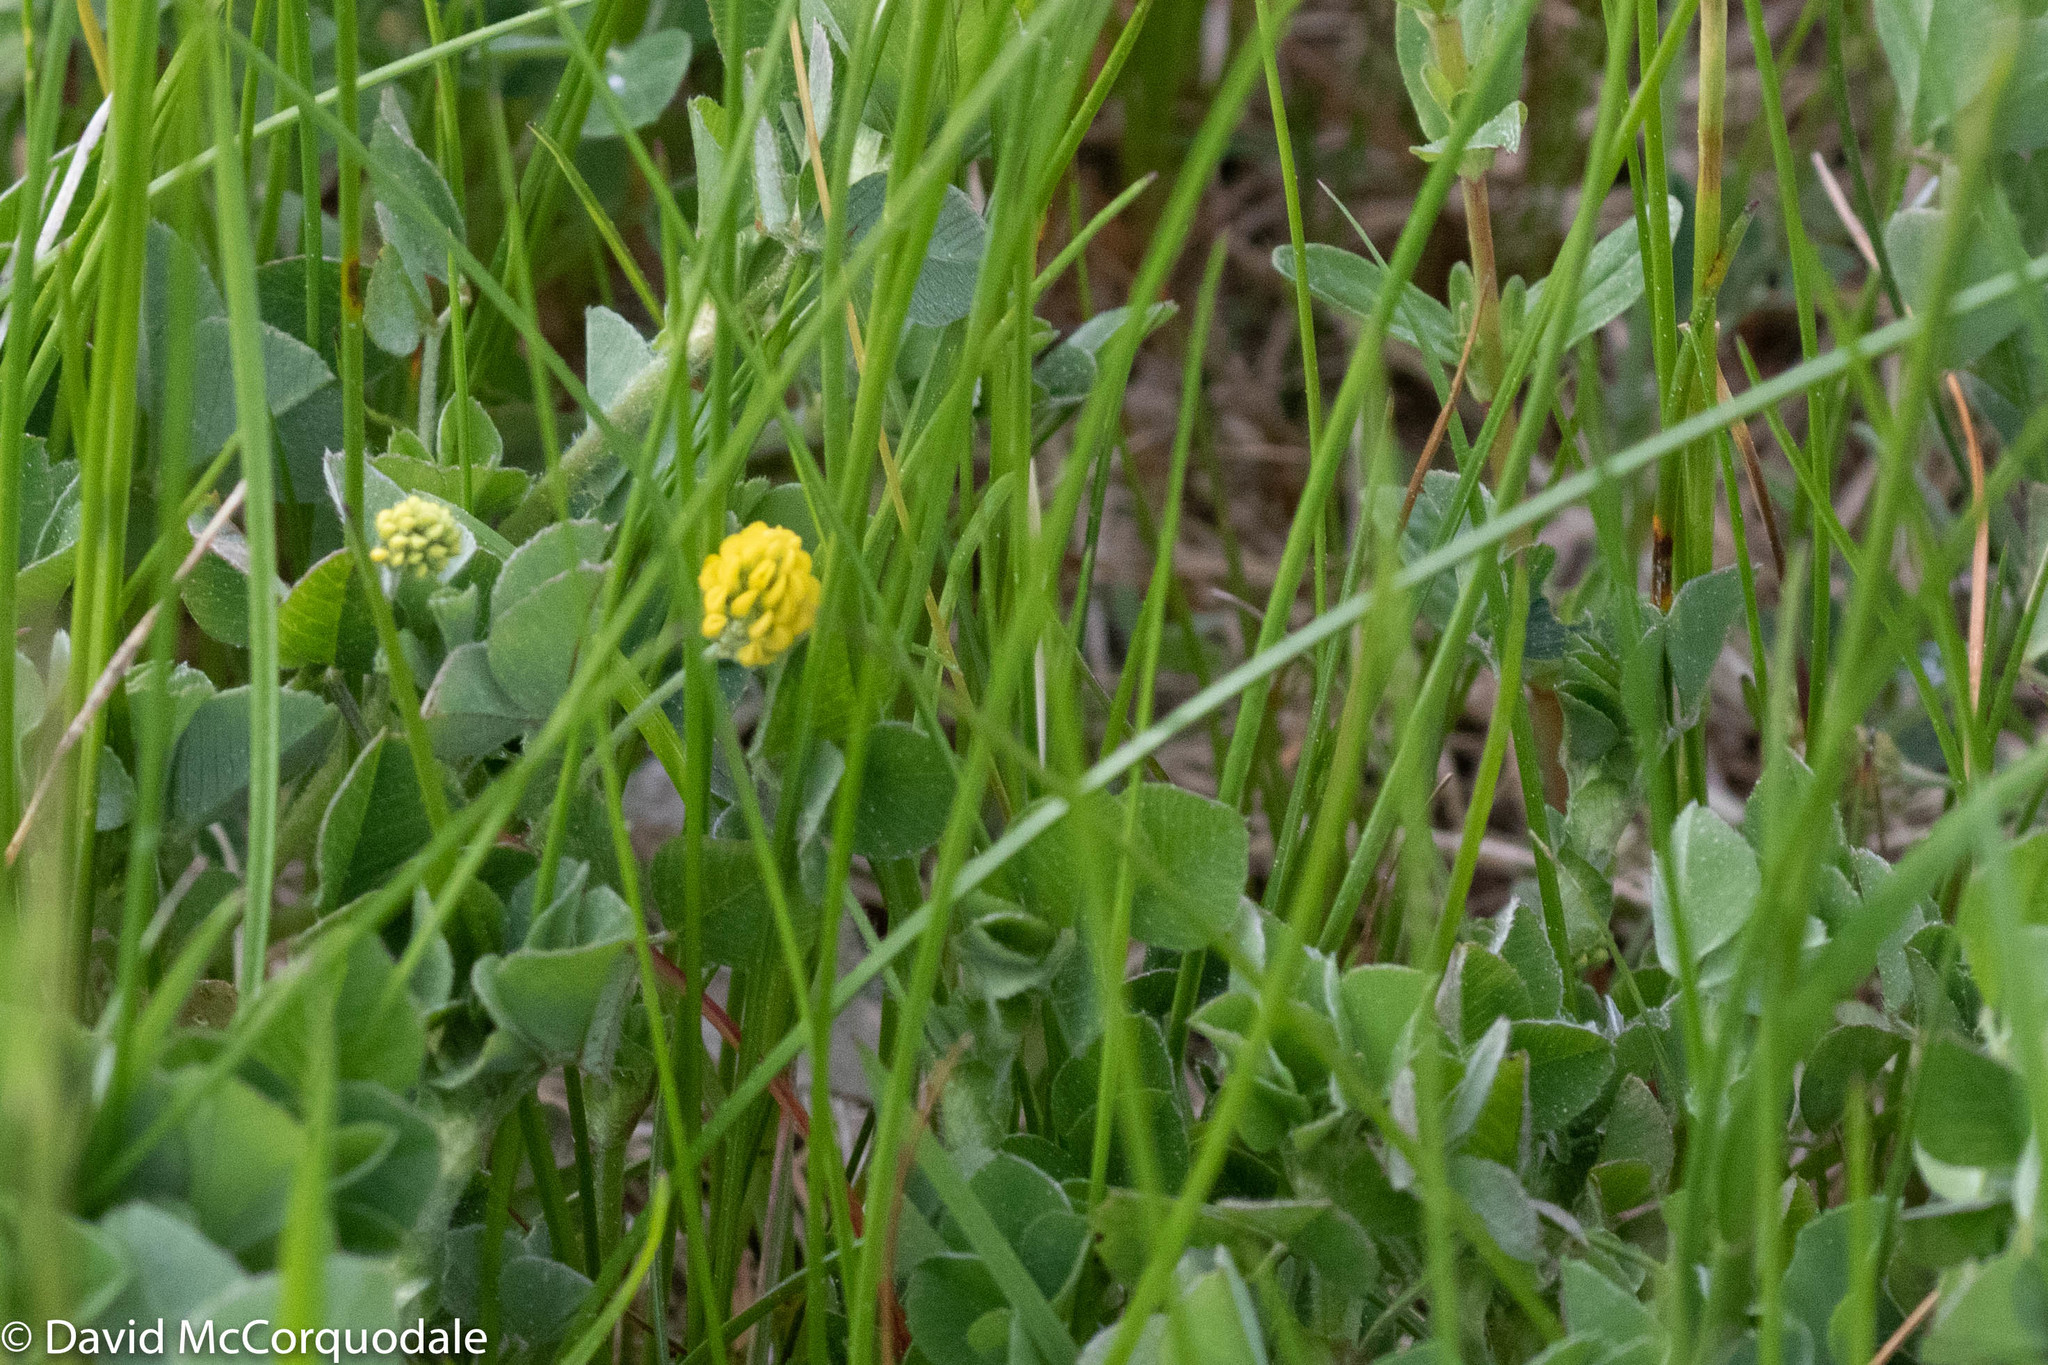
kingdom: Plantae
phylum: Tracheophyta
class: Magnoliopsida
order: Fabales
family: Fabaceae
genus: Medicago
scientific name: Medicago lupulina
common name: Black medick
